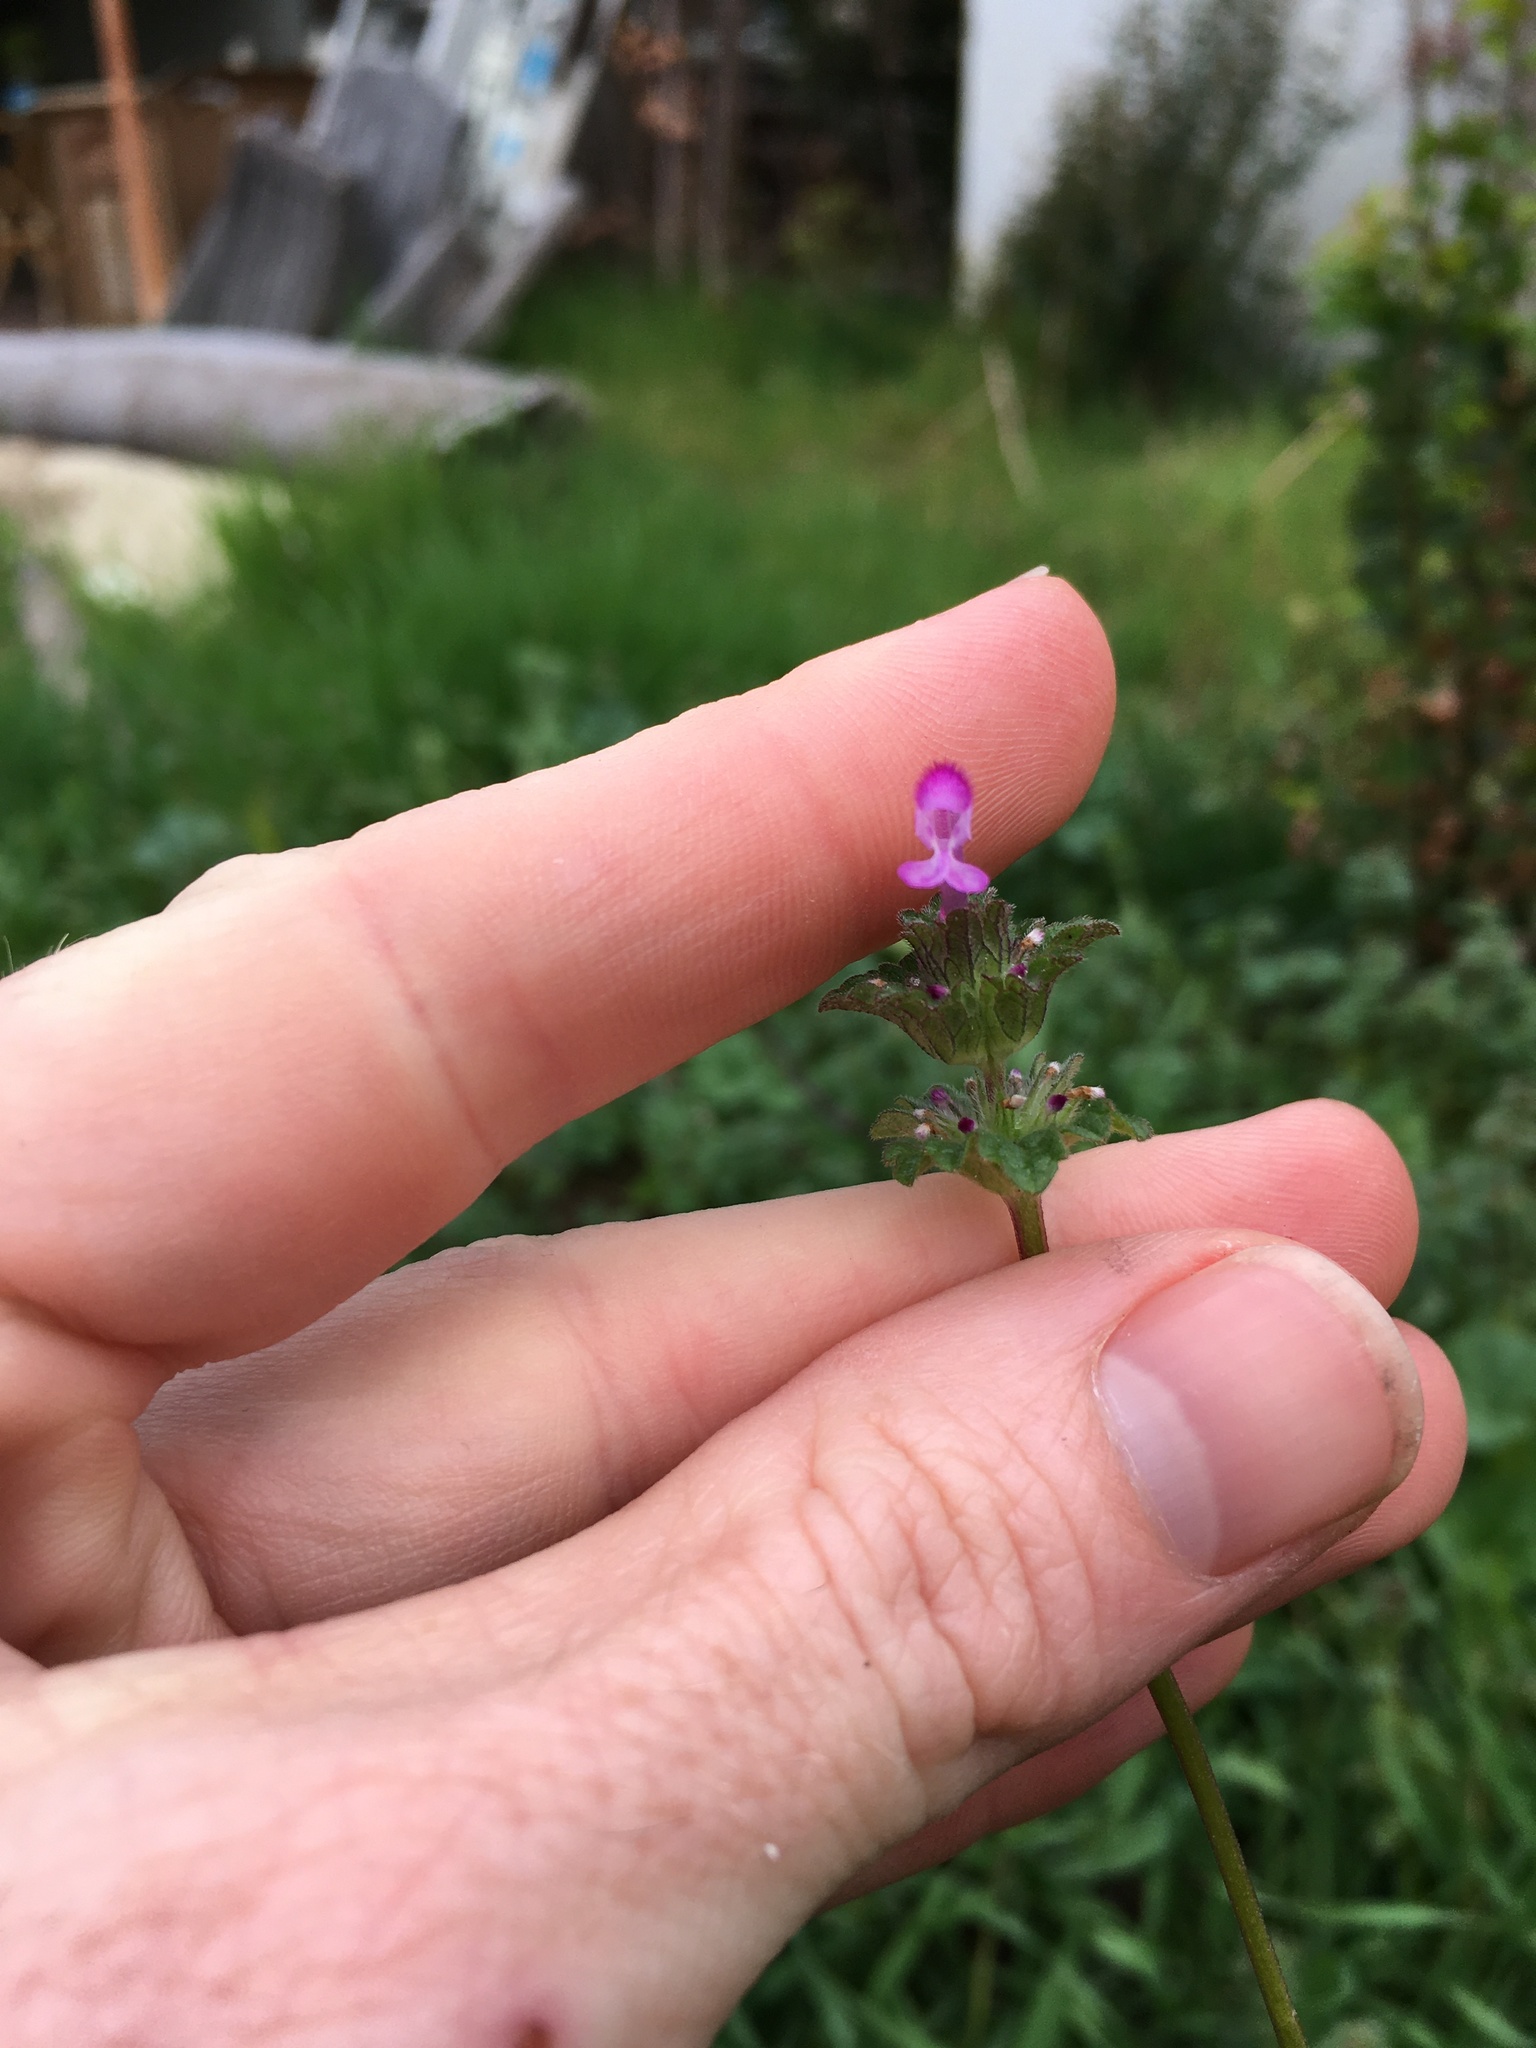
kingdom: Plantae
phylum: Tracheophyta
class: Magnoliopsida
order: Lamiales
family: Lamiaceae
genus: Lamium
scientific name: Lamium amplexicaule
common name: Henbit dead-nettle
